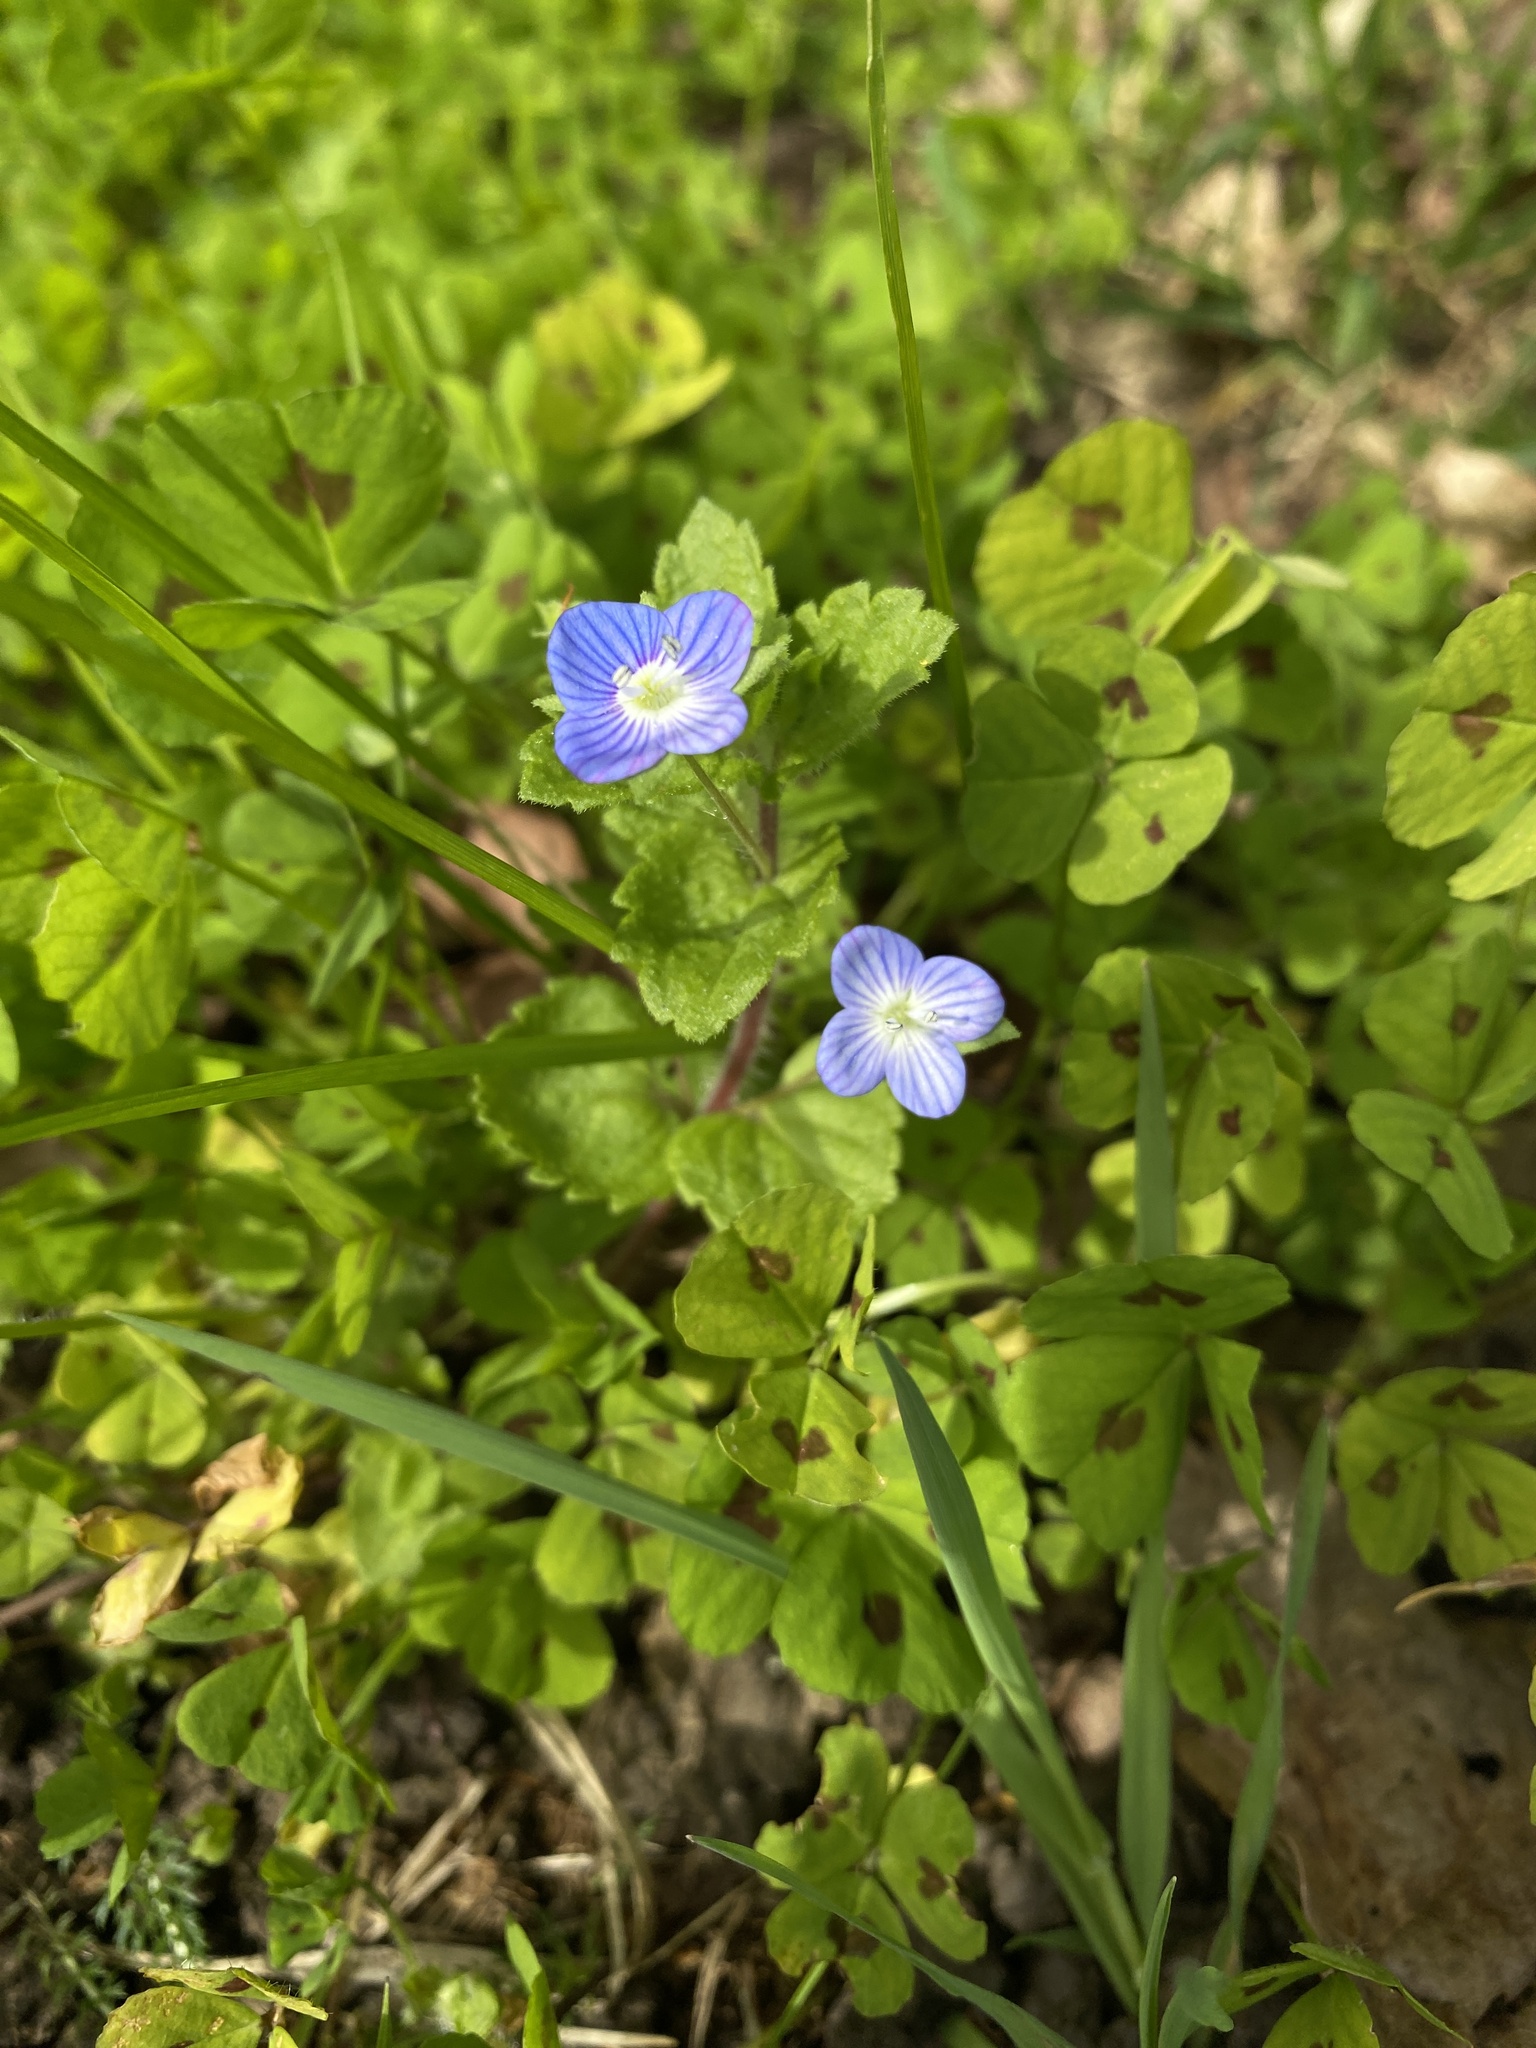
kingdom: Plantae
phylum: Tracheophyta
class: Magnoliopsida
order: Lamiales
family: Plantaginaceae
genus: Veronica
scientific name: Veronica persica
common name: Common field-speedwell
